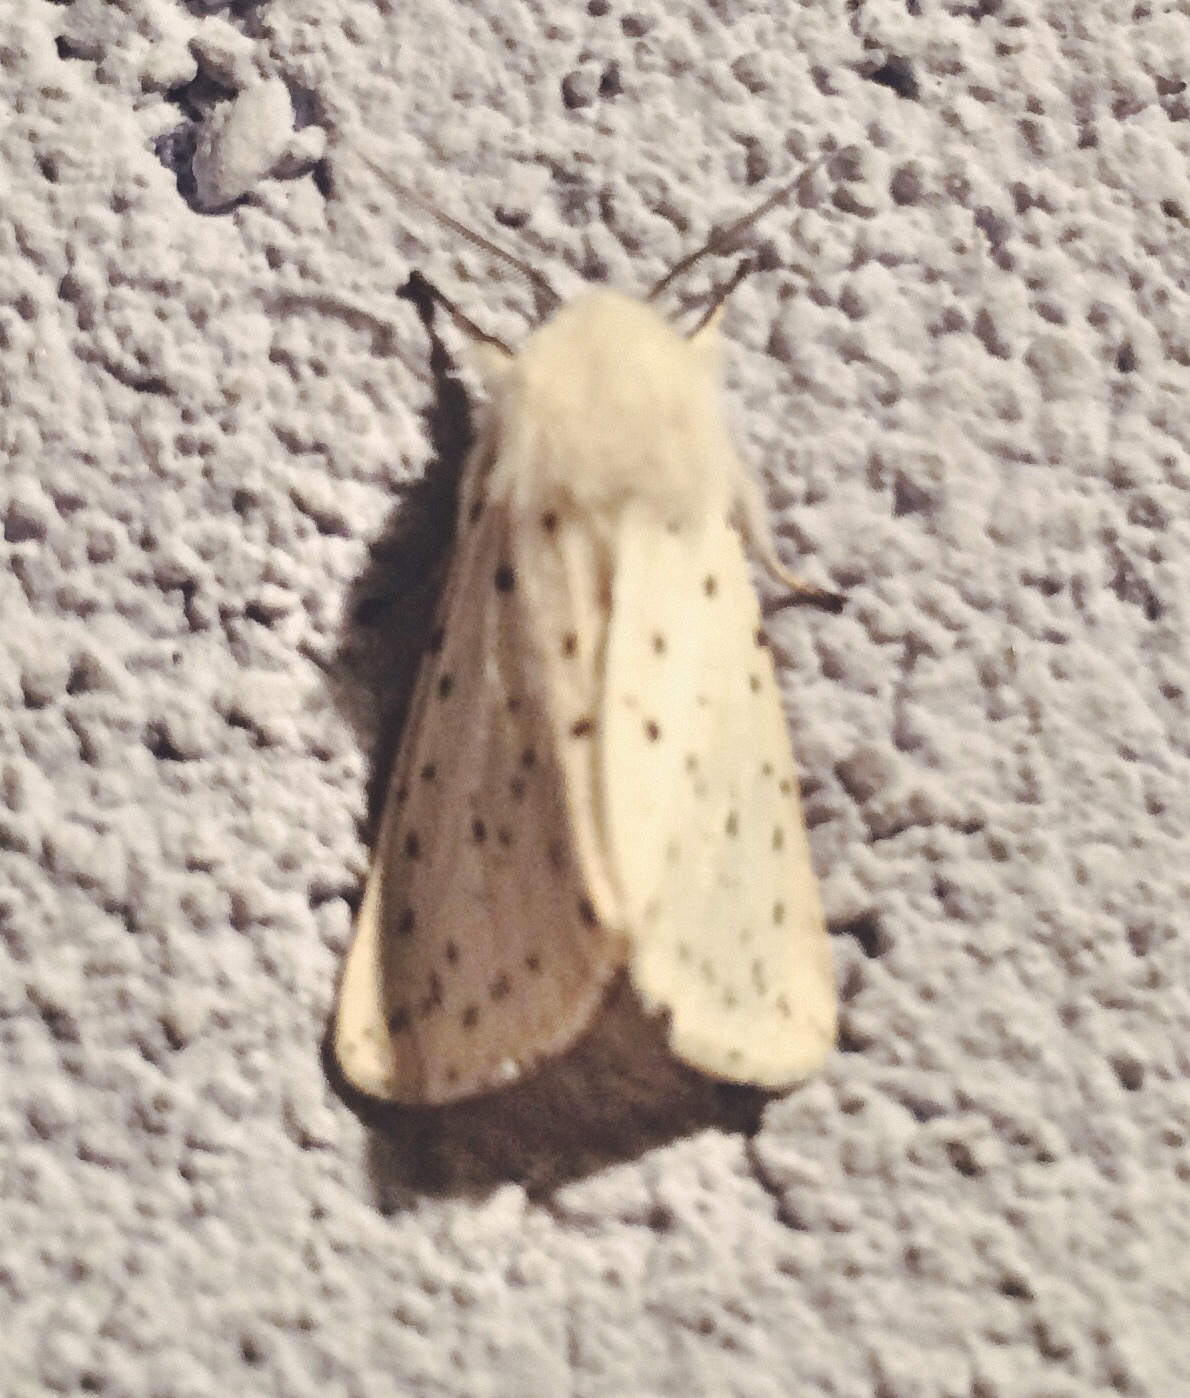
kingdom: Animalia
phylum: Arthropoda
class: Insecta
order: Lepidoptera
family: Erebidae
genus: Spilosoma
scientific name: Spilosoma lubricipeda
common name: White ermine
